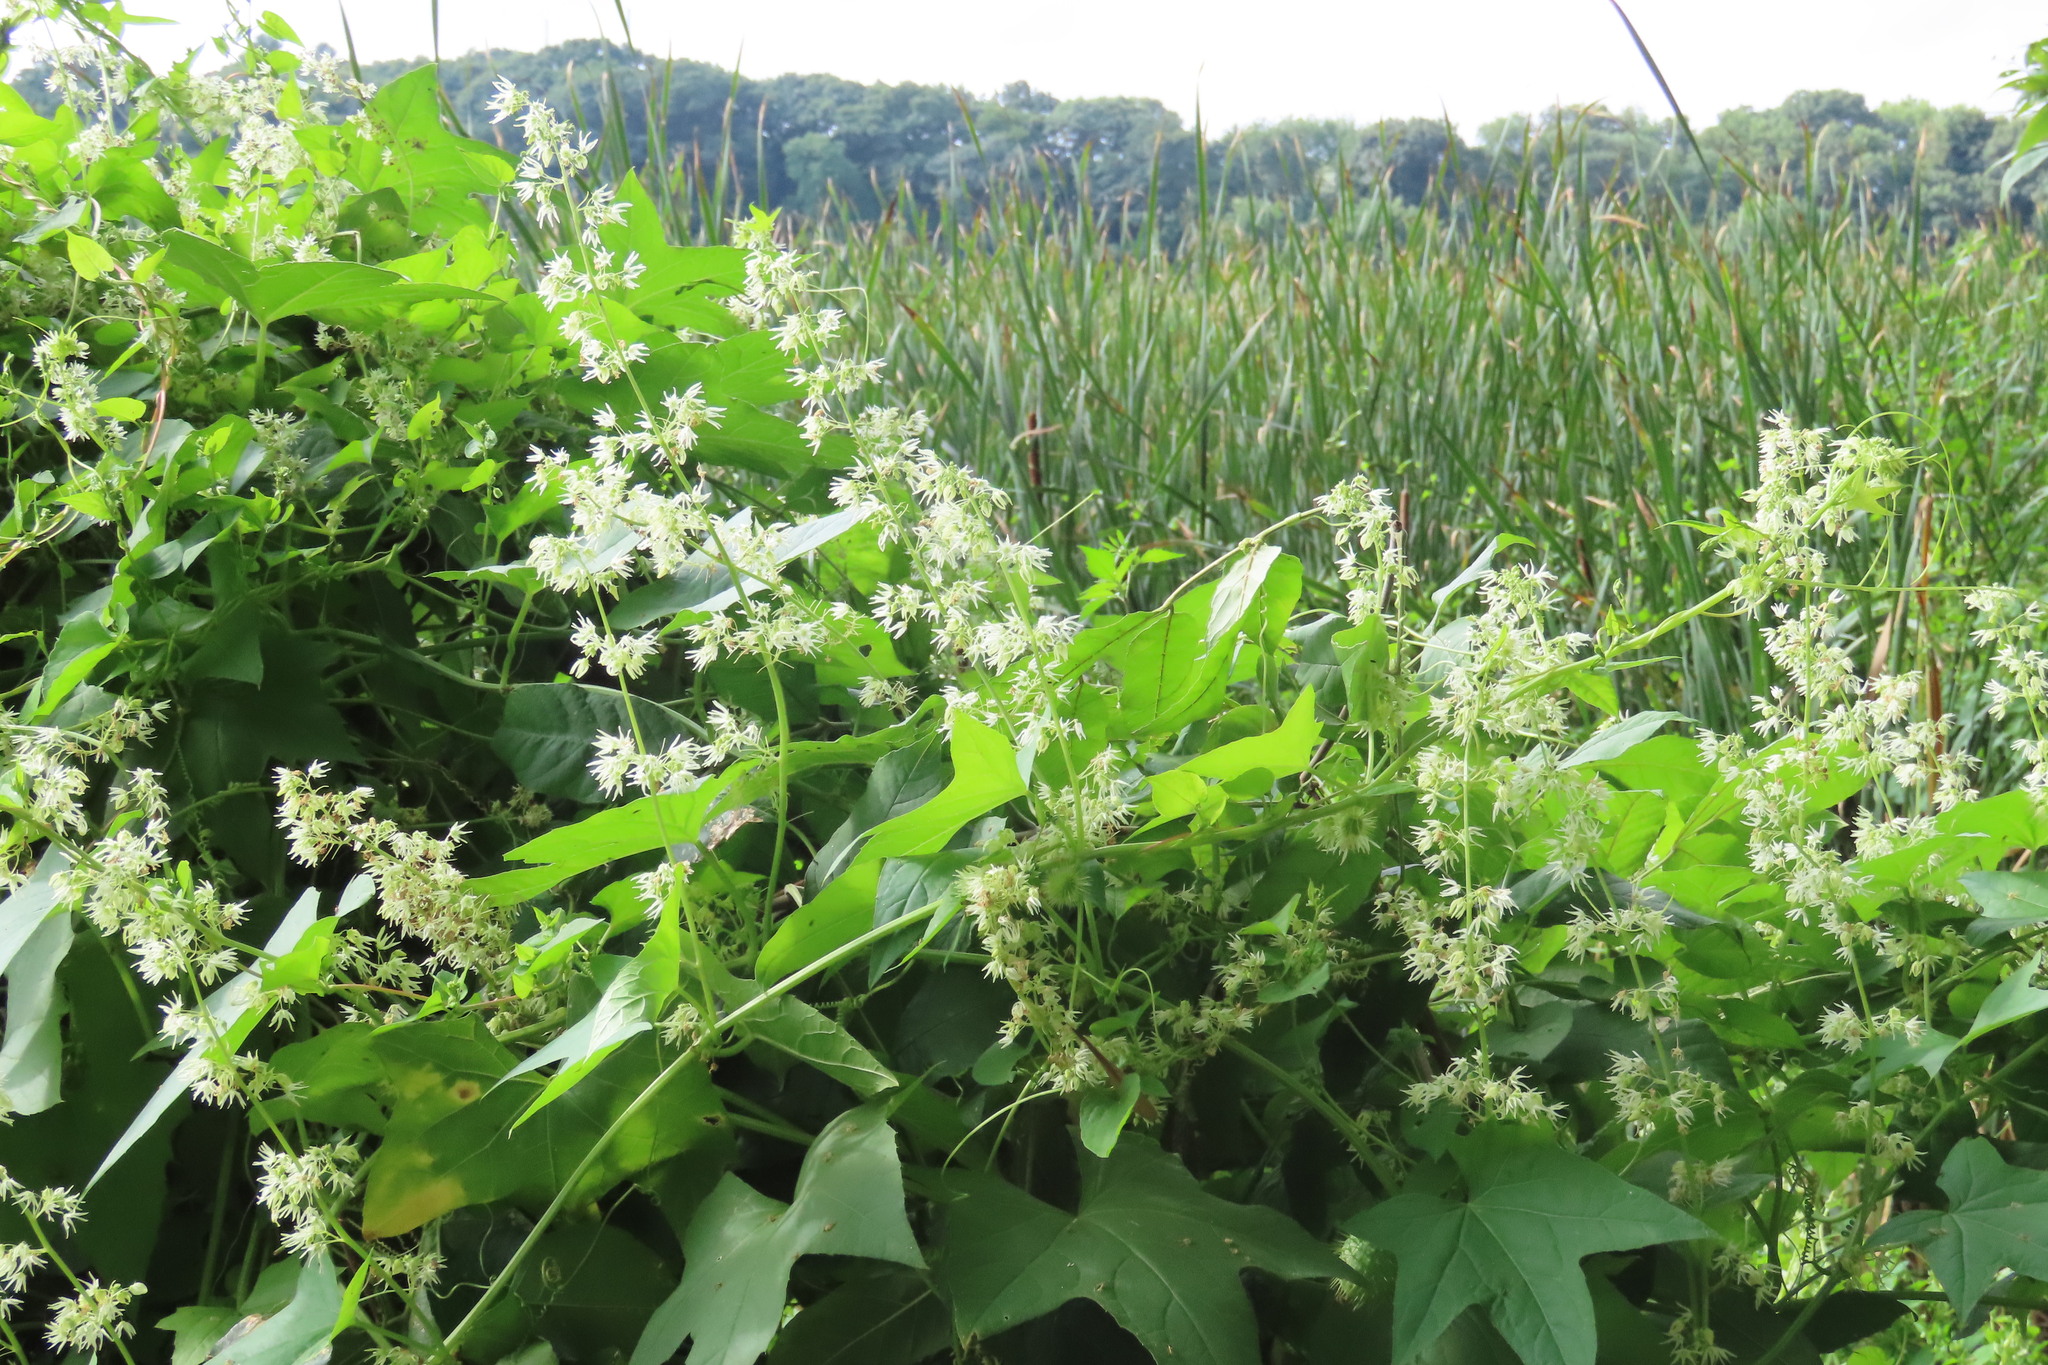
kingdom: Plantae
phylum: Tracheophyta
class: Magnoliopsida
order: Cucurbitales
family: Cucurbitaceae
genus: Echinocystis
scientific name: Echinocystis lobata
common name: Wild cucumber
